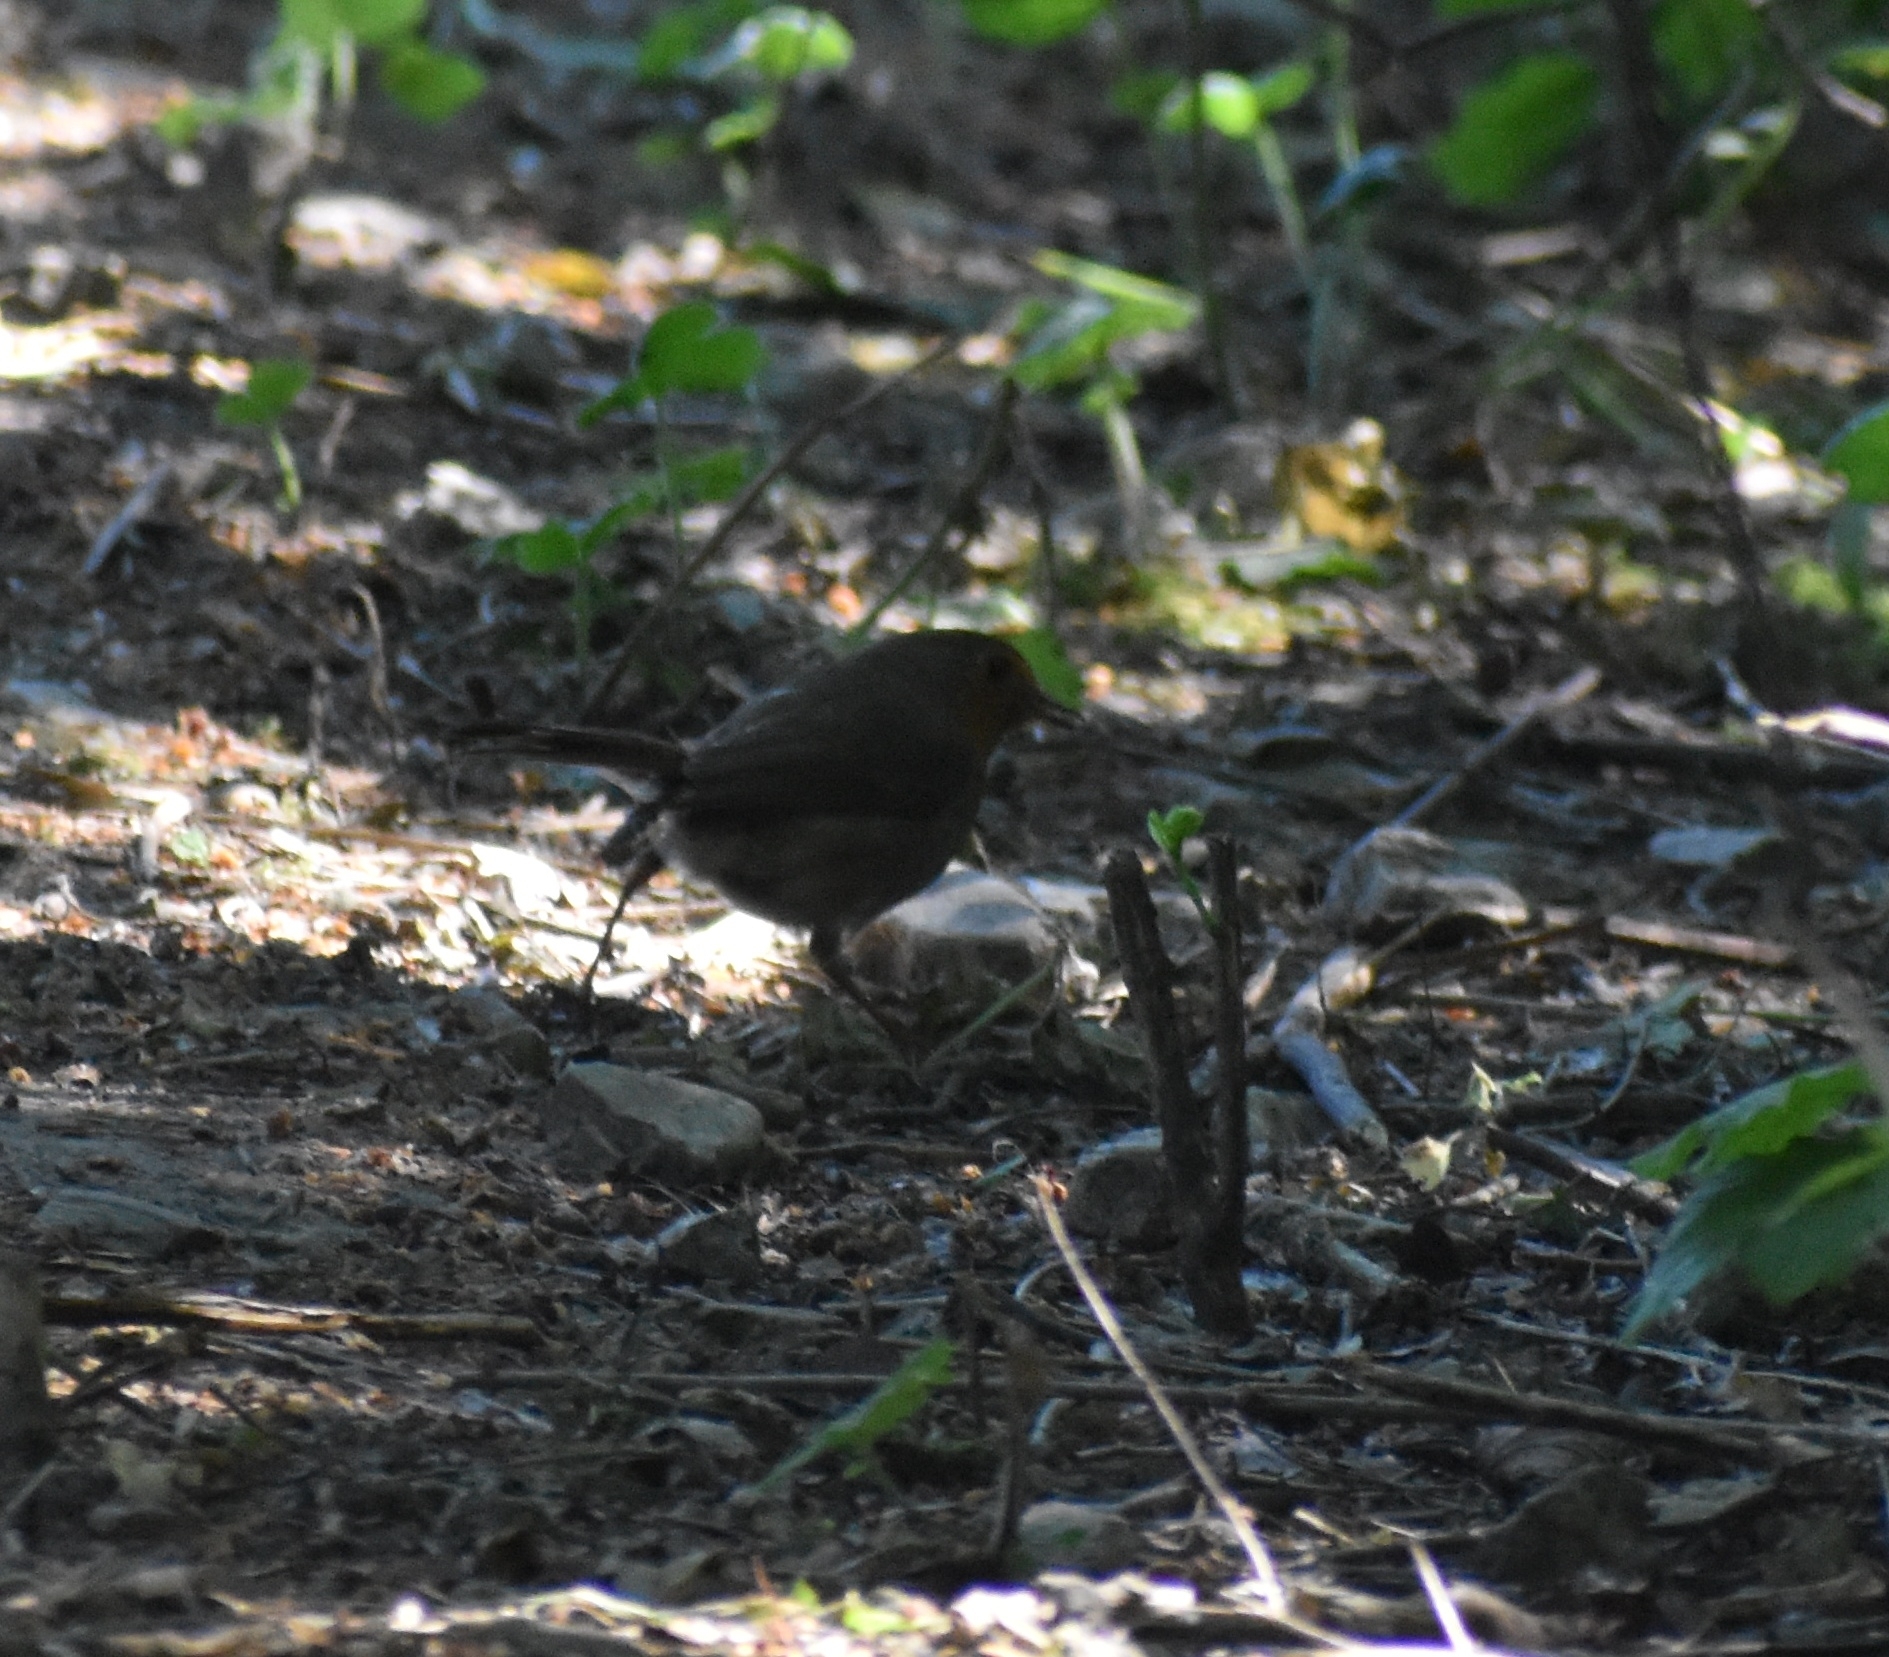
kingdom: Animalia
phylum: Chordata
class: Aves
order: Passeriformes
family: Muscicapidae
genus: Erithacus
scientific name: Erithacus rubecula
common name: European robin
